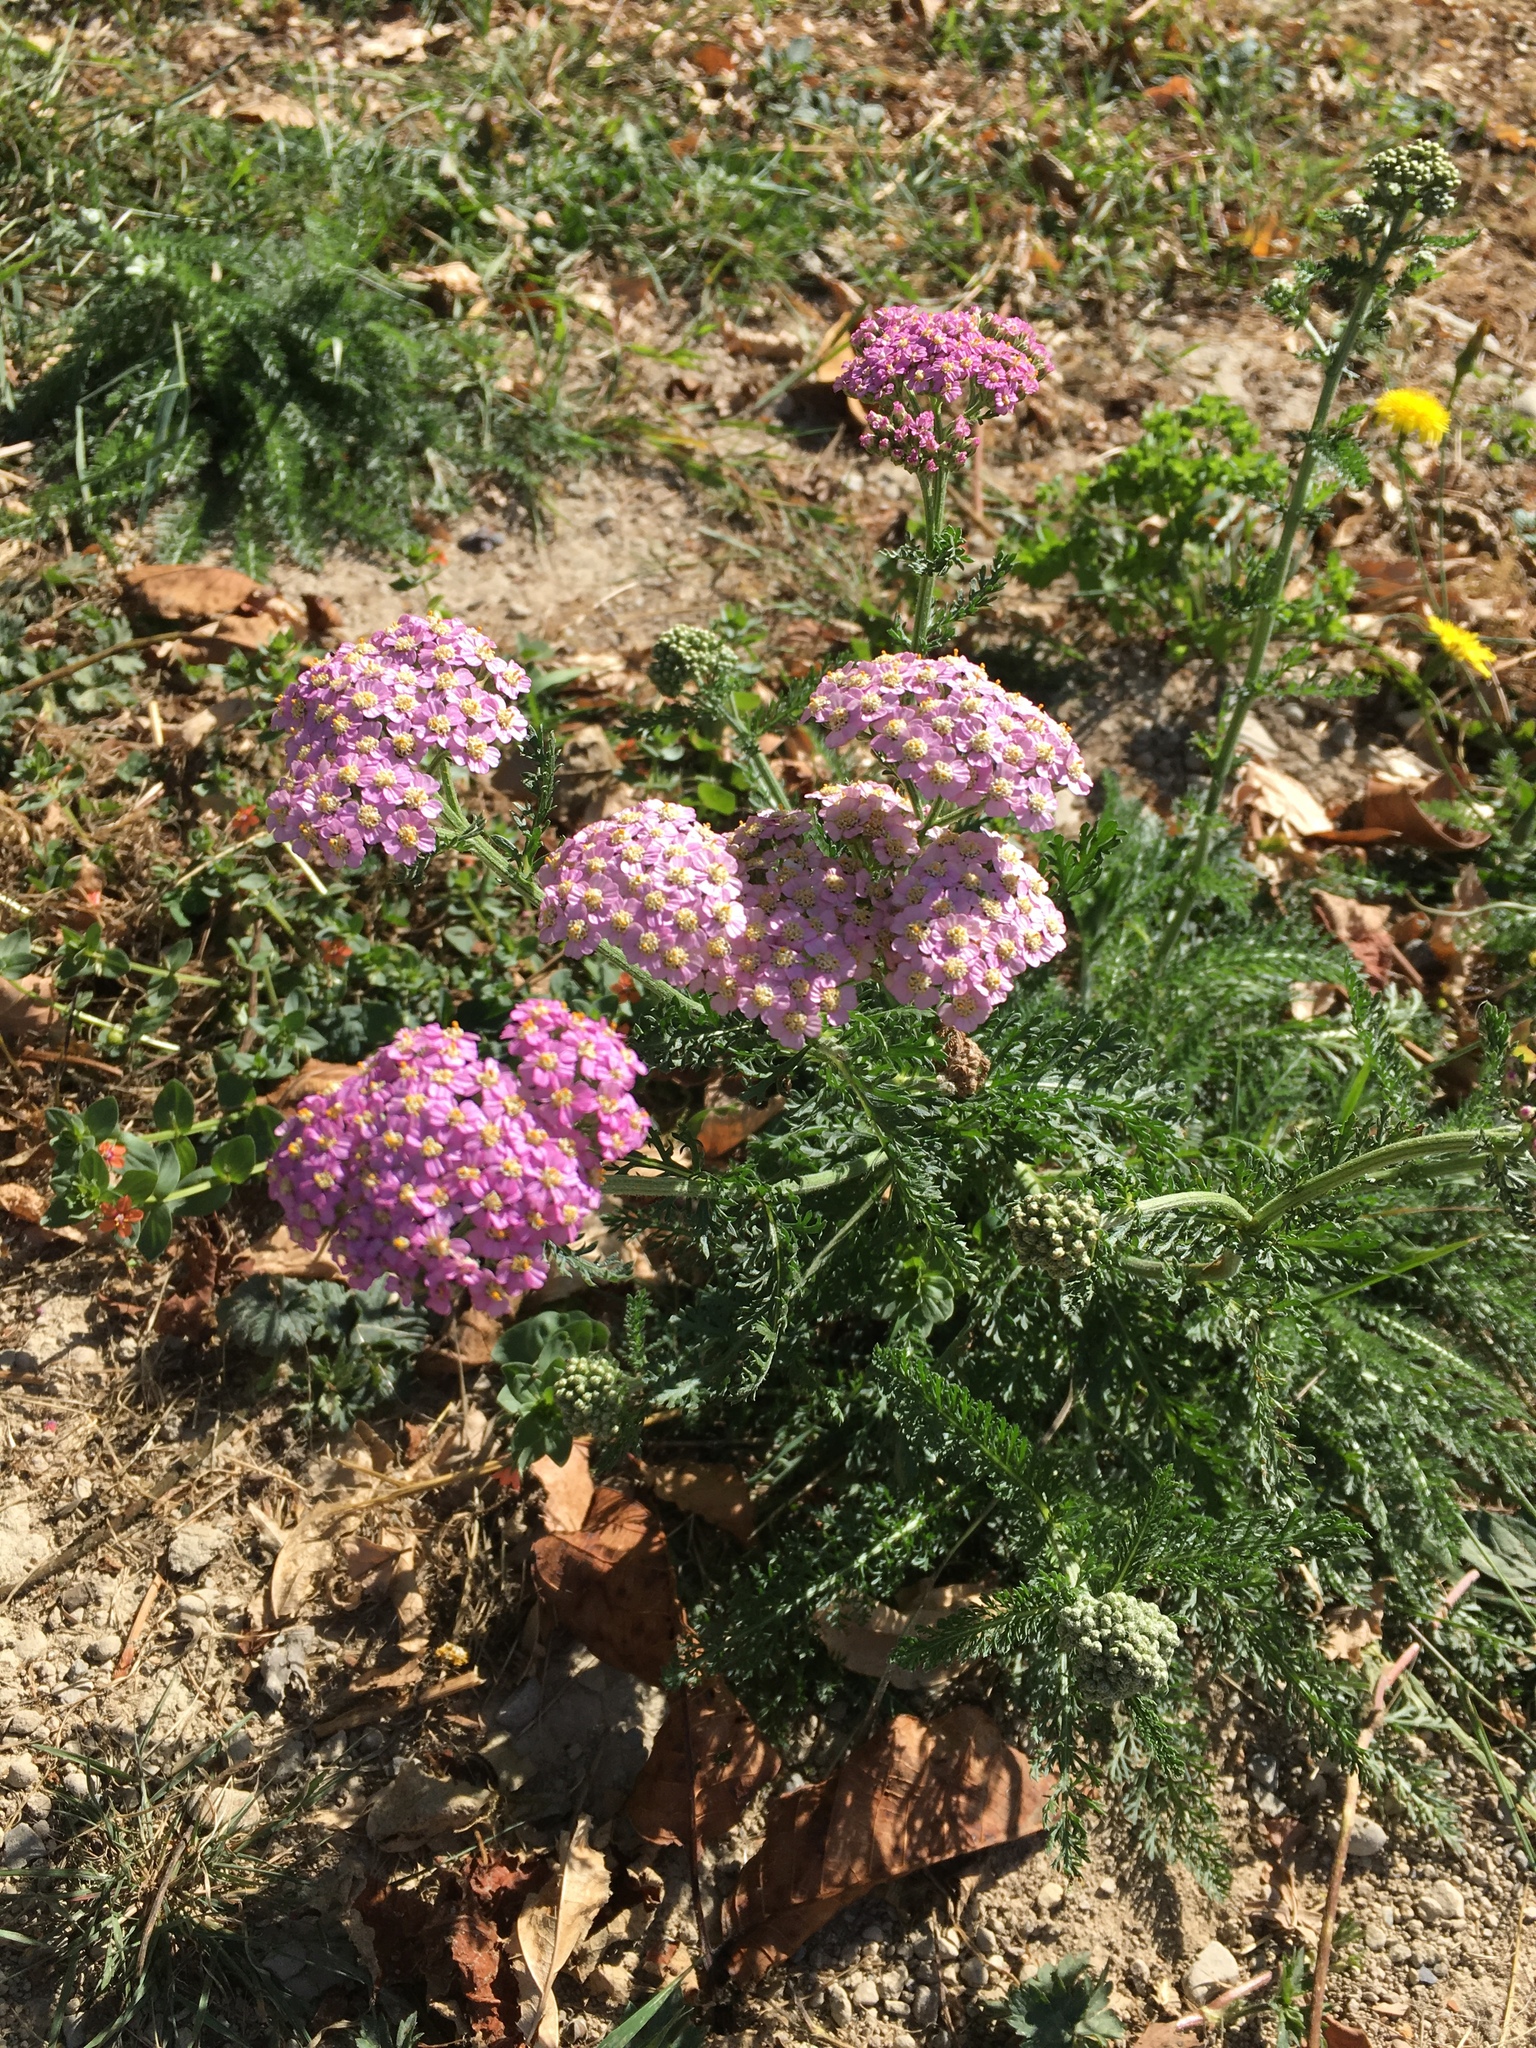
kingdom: Plantae
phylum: Tracheophyta
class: Magnoliopsida
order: Asterales
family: Asteraceae
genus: Achillea
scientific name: Achillea millefolium
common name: Yarrow
